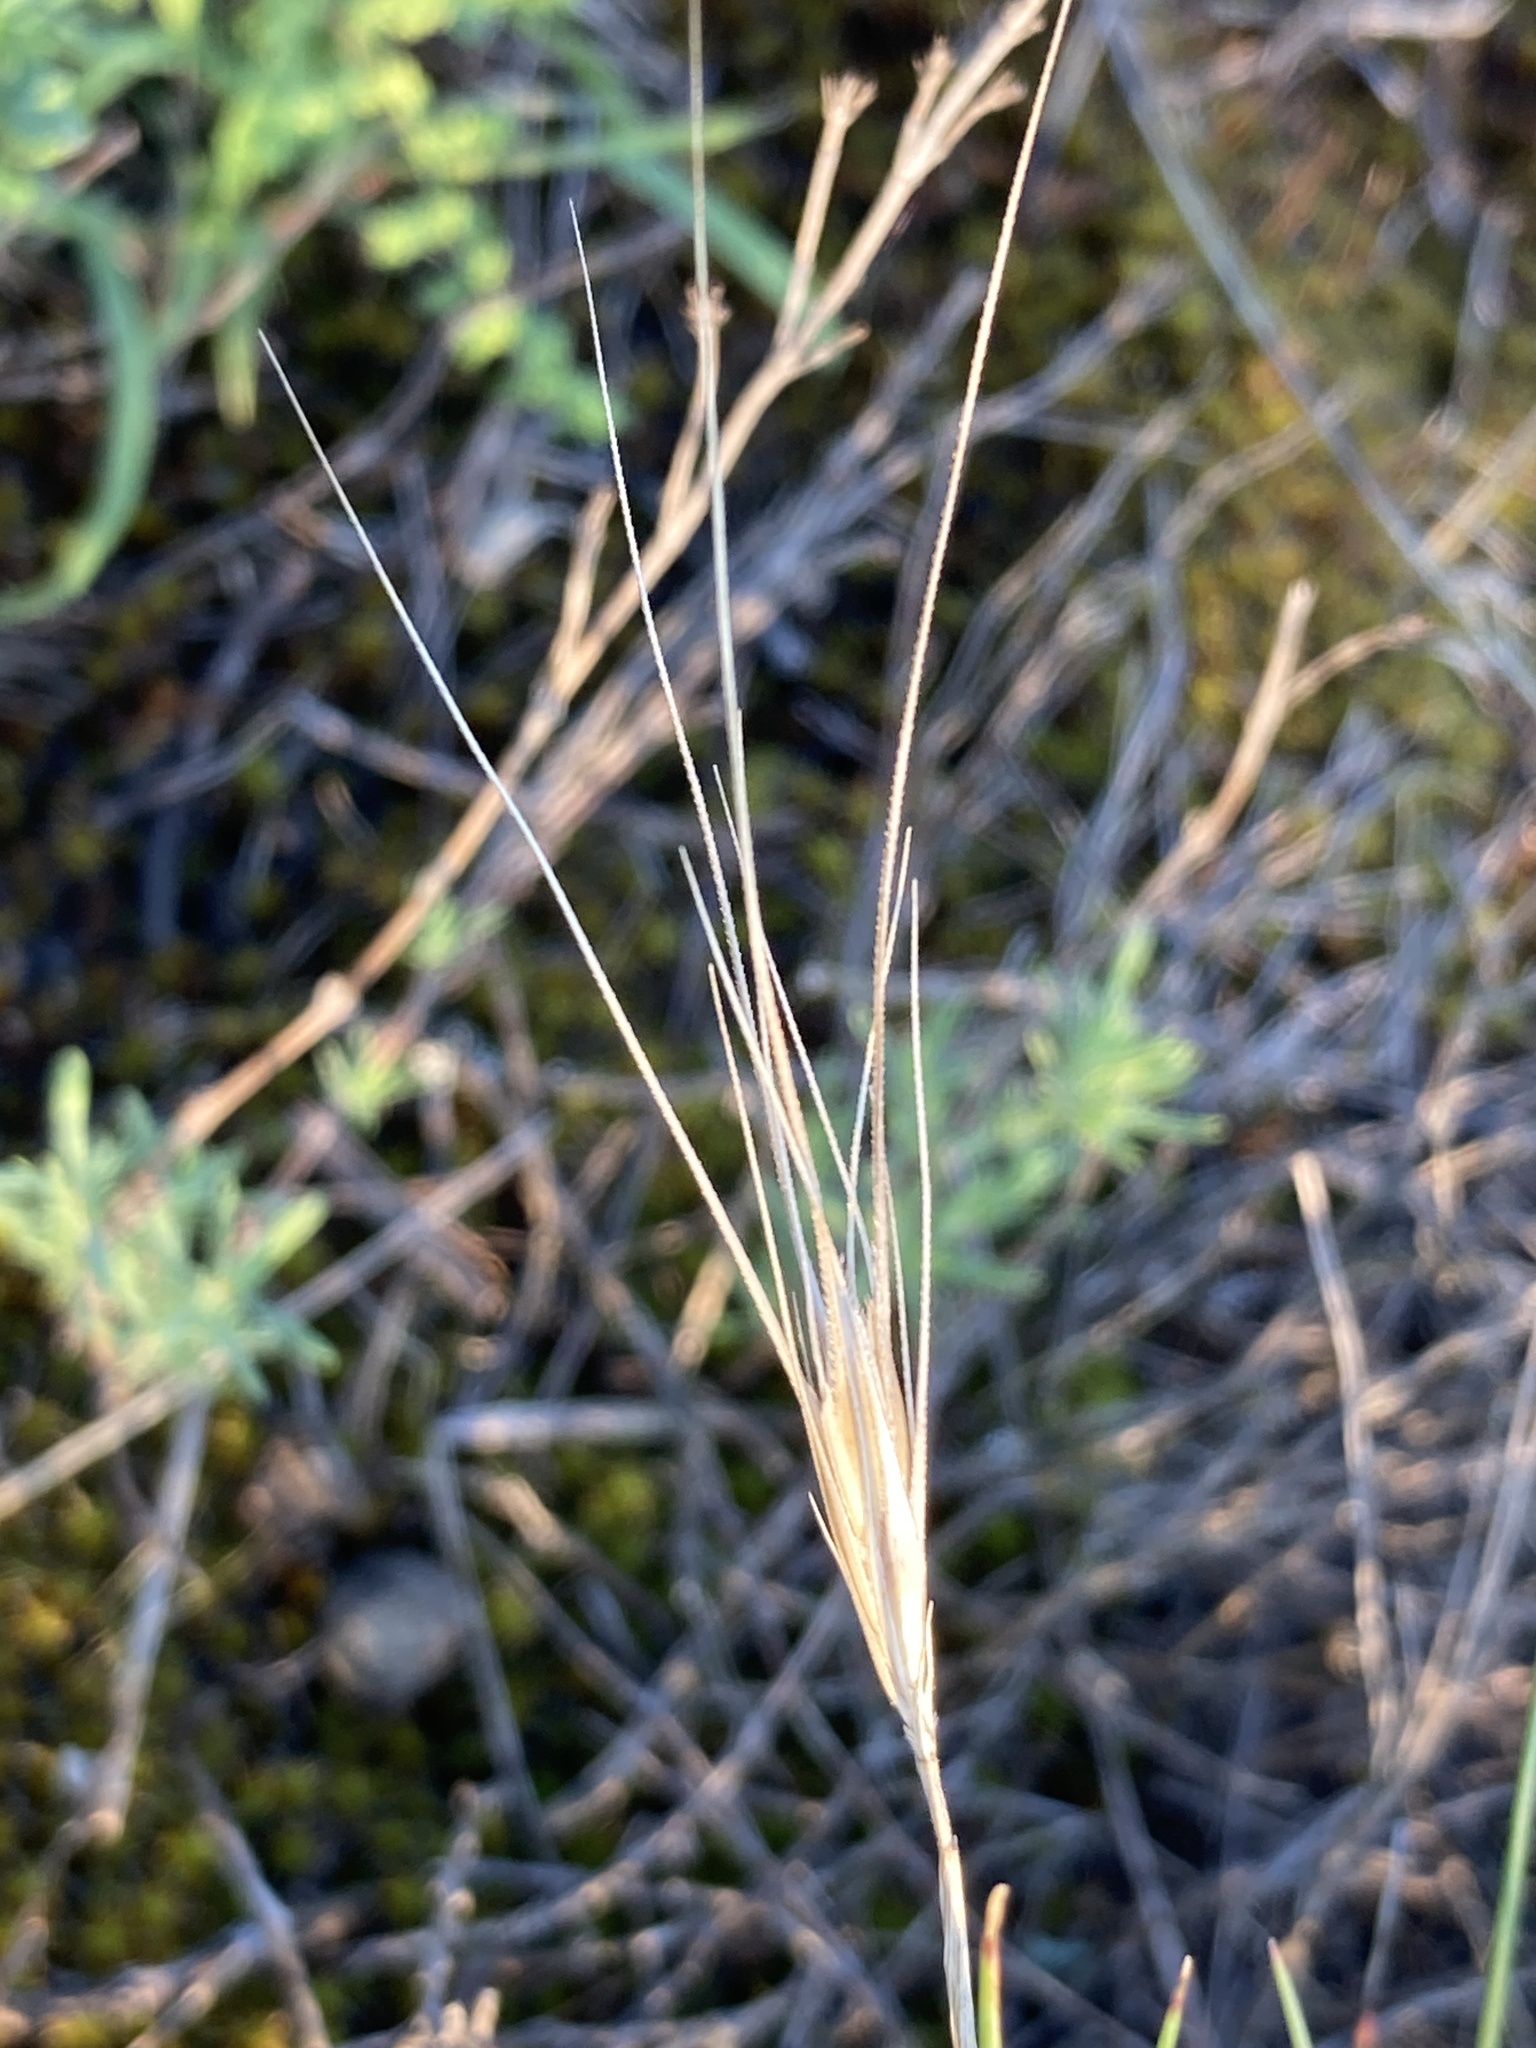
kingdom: Plantae
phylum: Tracheophyta
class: Liliopsida
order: Poales
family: Poaceae
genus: Festuca
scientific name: Festuca valesiaca
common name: Volga fescue
